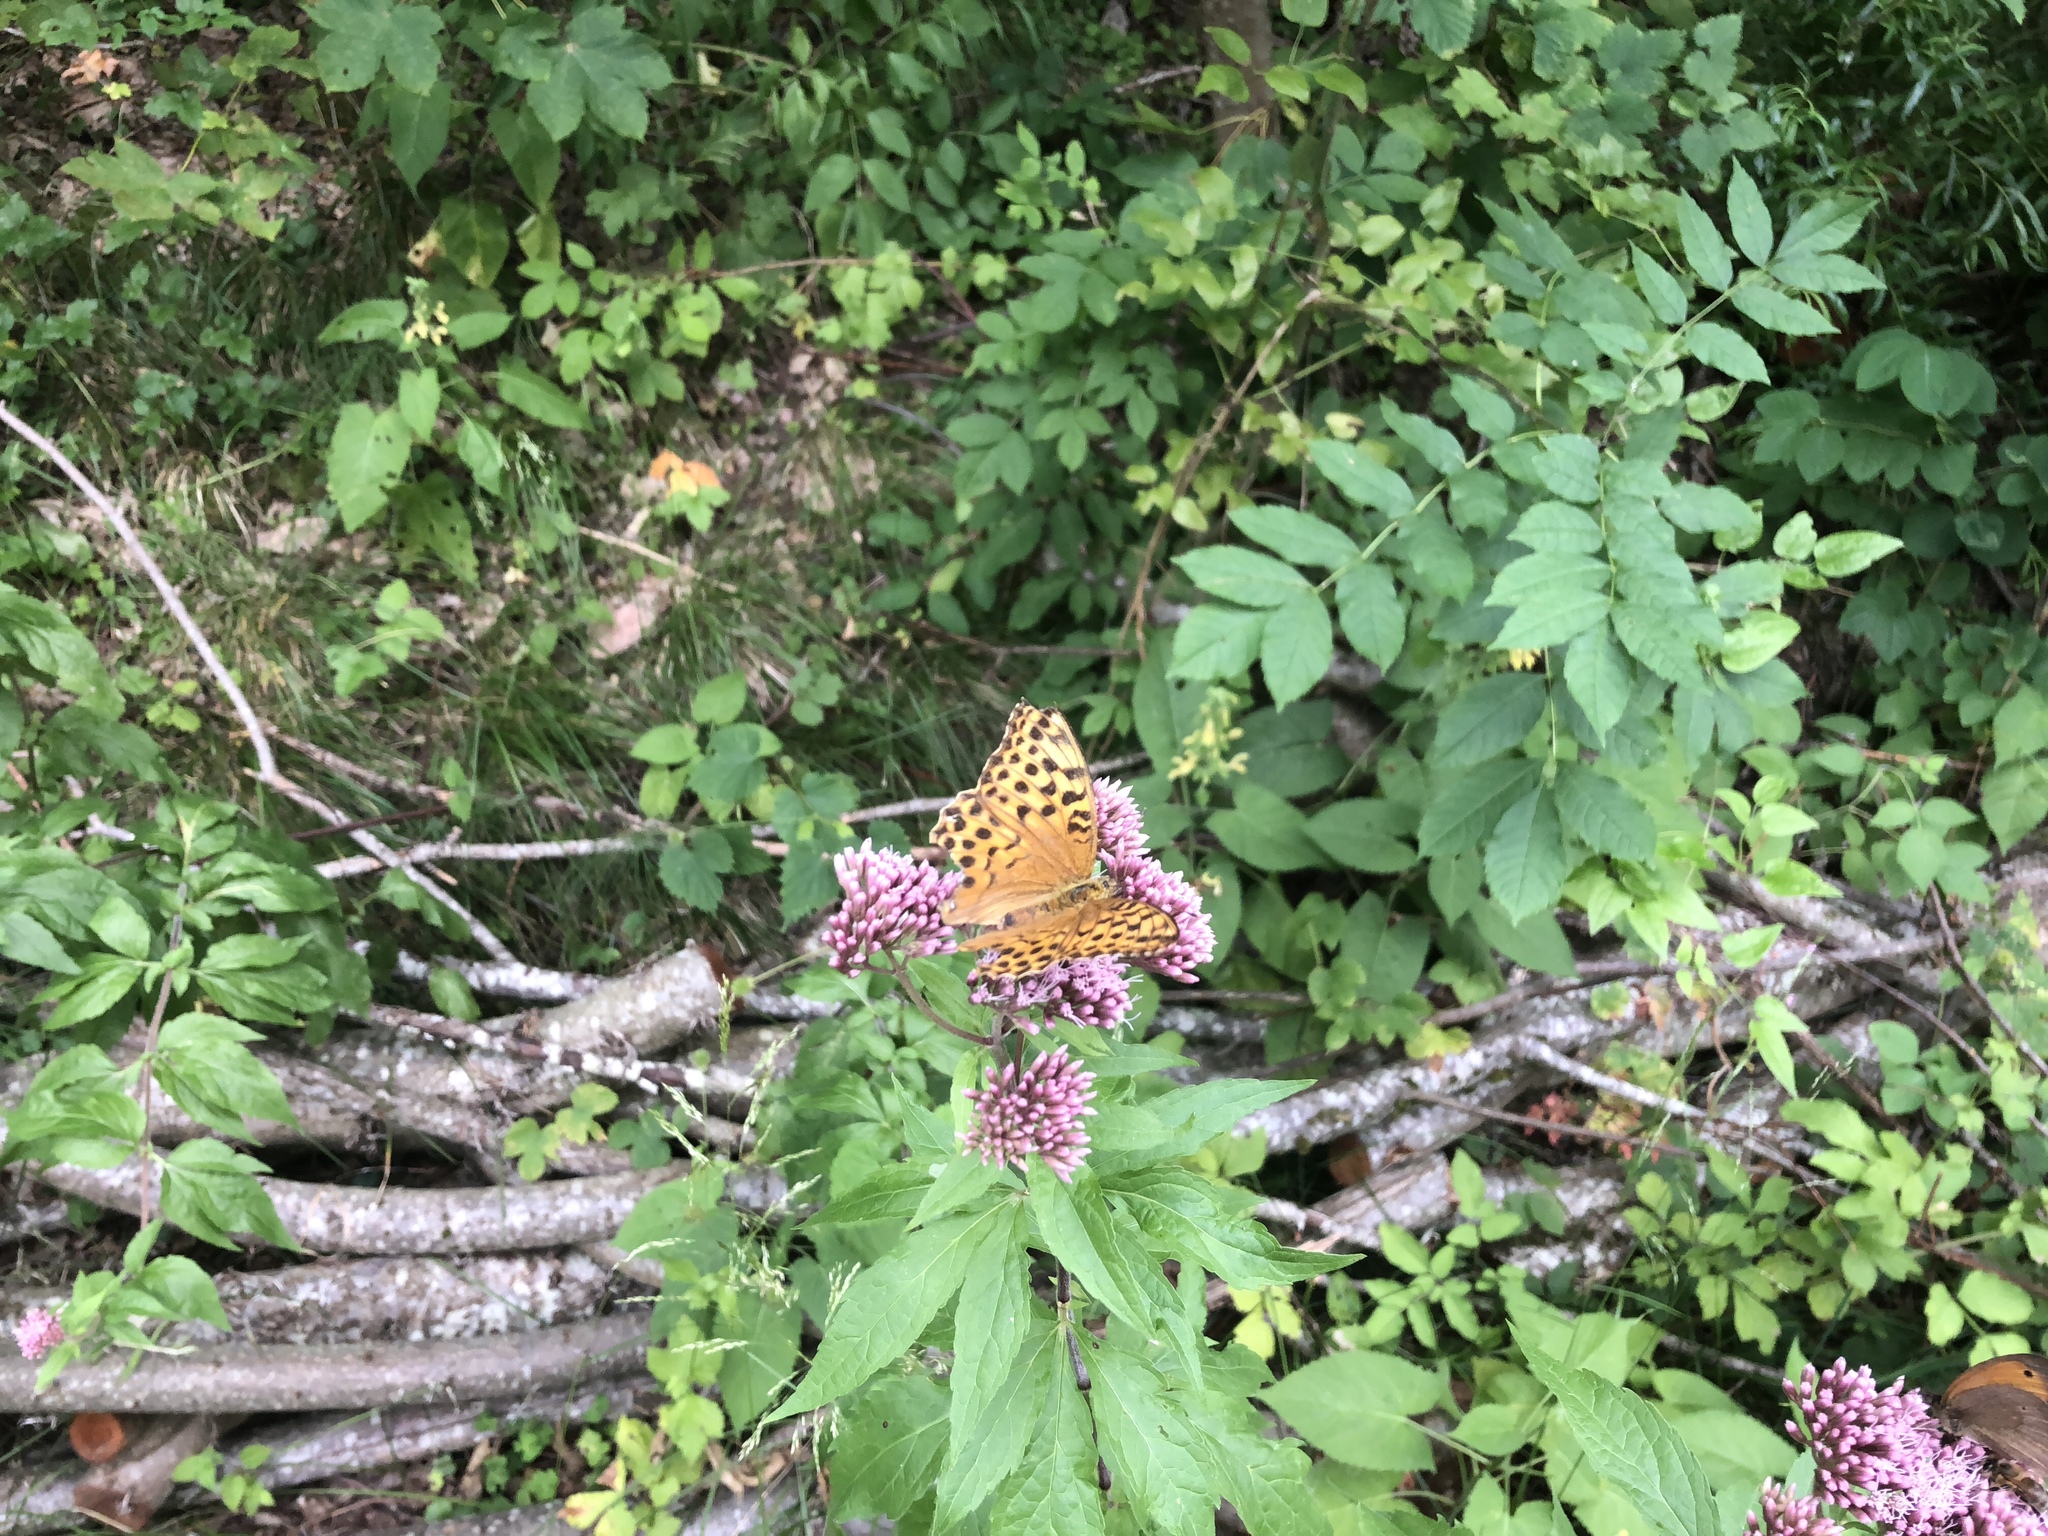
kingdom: Animalia
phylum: Arthropoda
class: Insecta
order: Lepidoptera
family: Nymphalidae
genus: Argynnis
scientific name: Argynnis paphia
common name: Silver-washed fritillary
